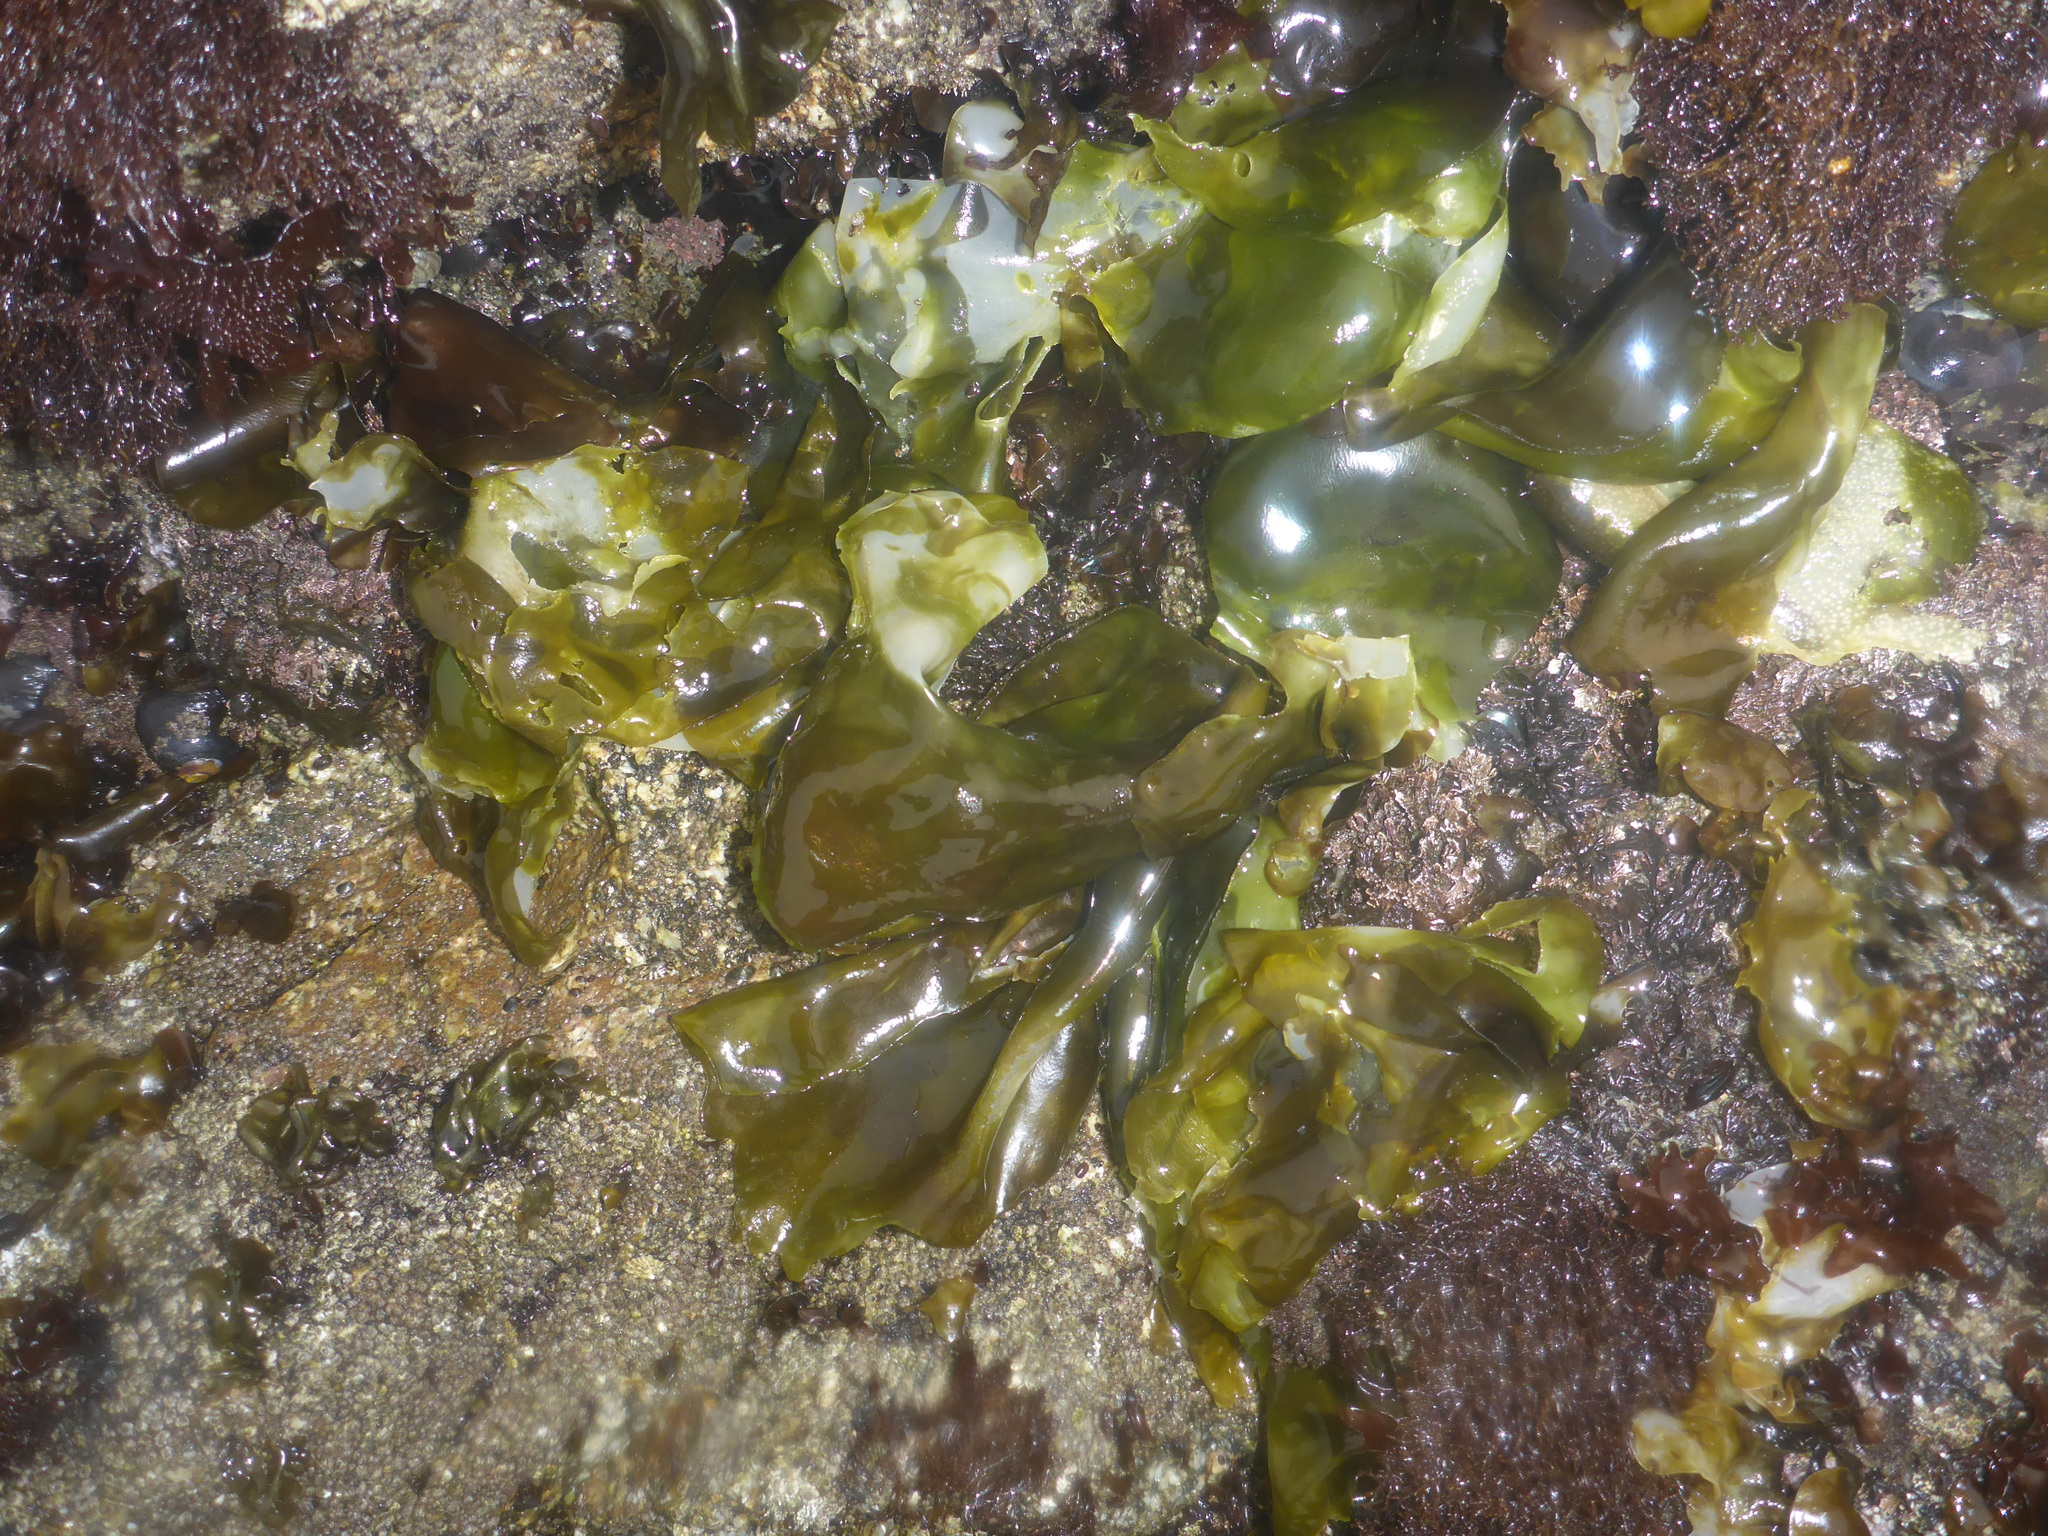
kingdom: Plantae
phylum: Rhodophyta
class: Florideophyceae
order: Gigartinales
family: Gigartinaceae
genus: Mazzaella
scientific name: Mazzaella flaccida
